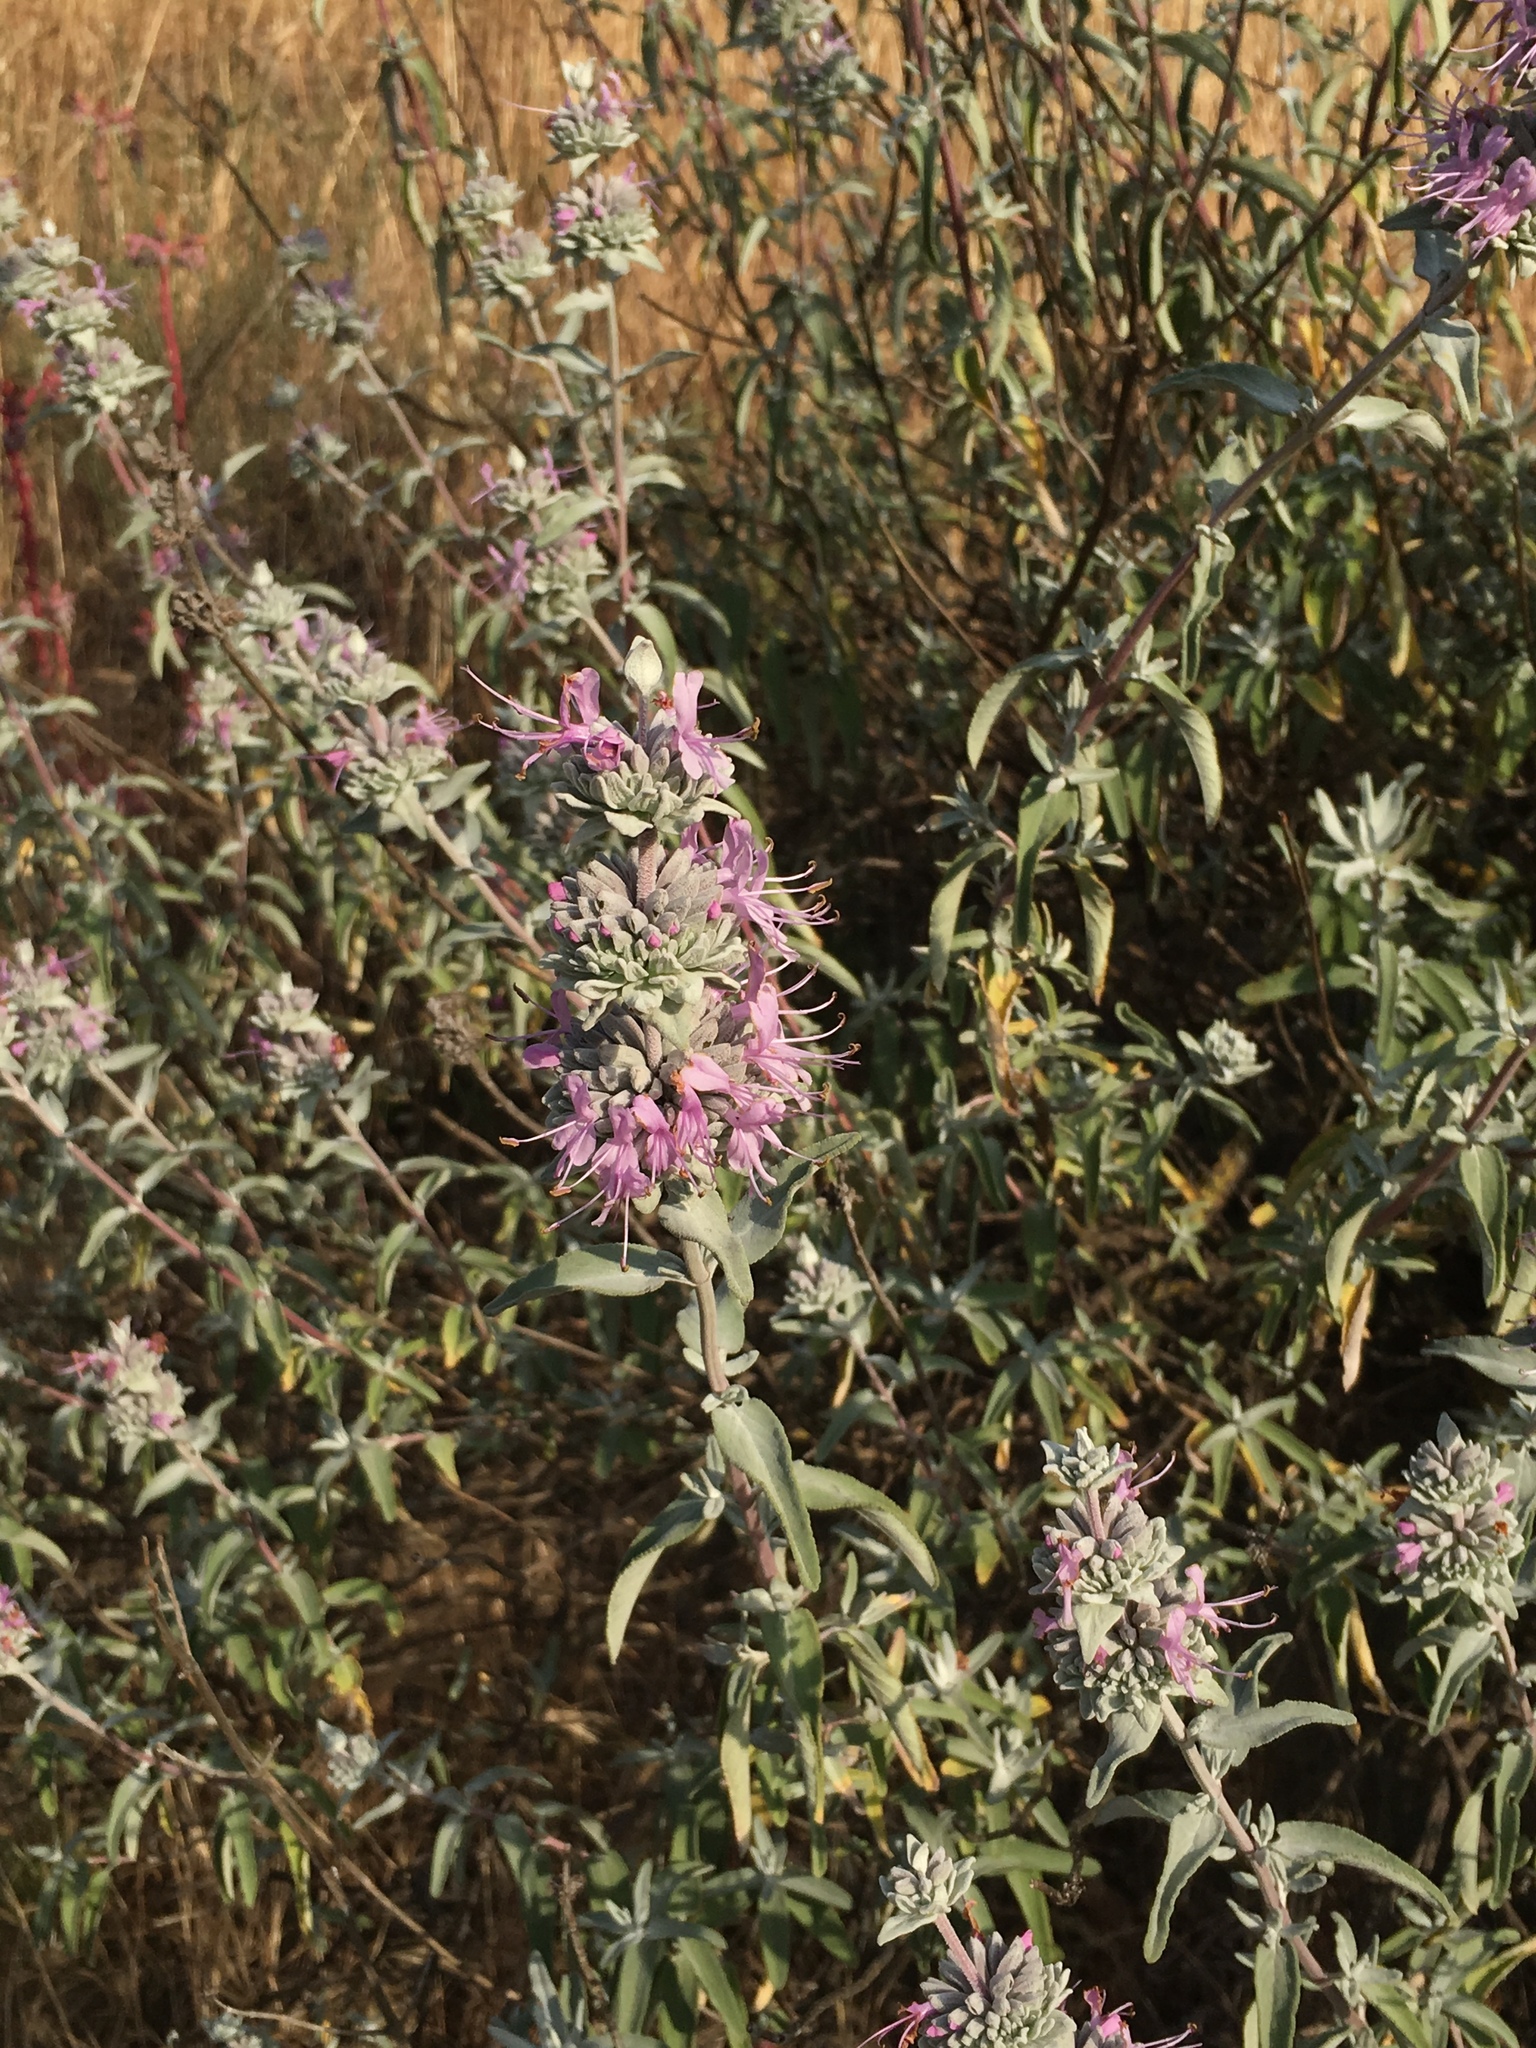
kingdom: Plantae
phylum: Tracheophyta
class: Magnoliopsida
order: Lamiales
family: Lamiaceae
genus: Salvia
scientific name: Salvia leucophylla
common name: Purple sage
